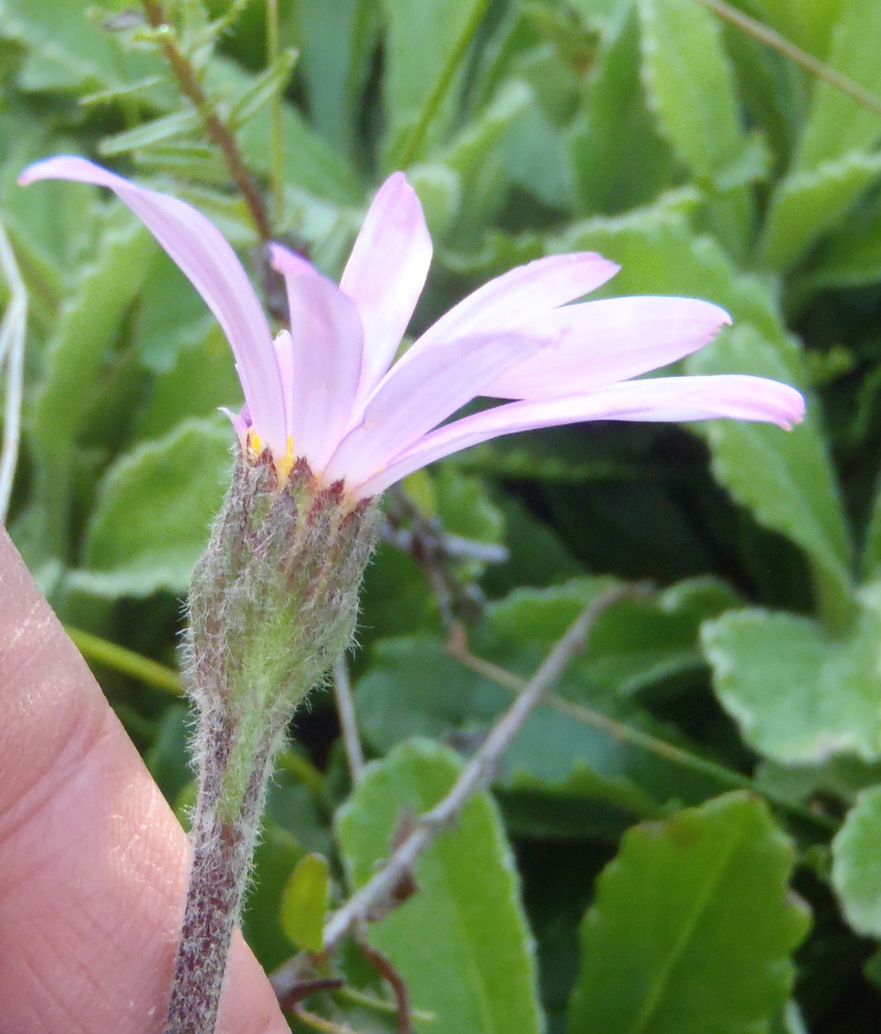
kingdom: Plantae
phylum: Tracheophyta
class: Magnoliopsida
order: Asterales
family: Asteraceae
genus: Mairia
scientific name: Mairia purpurata
